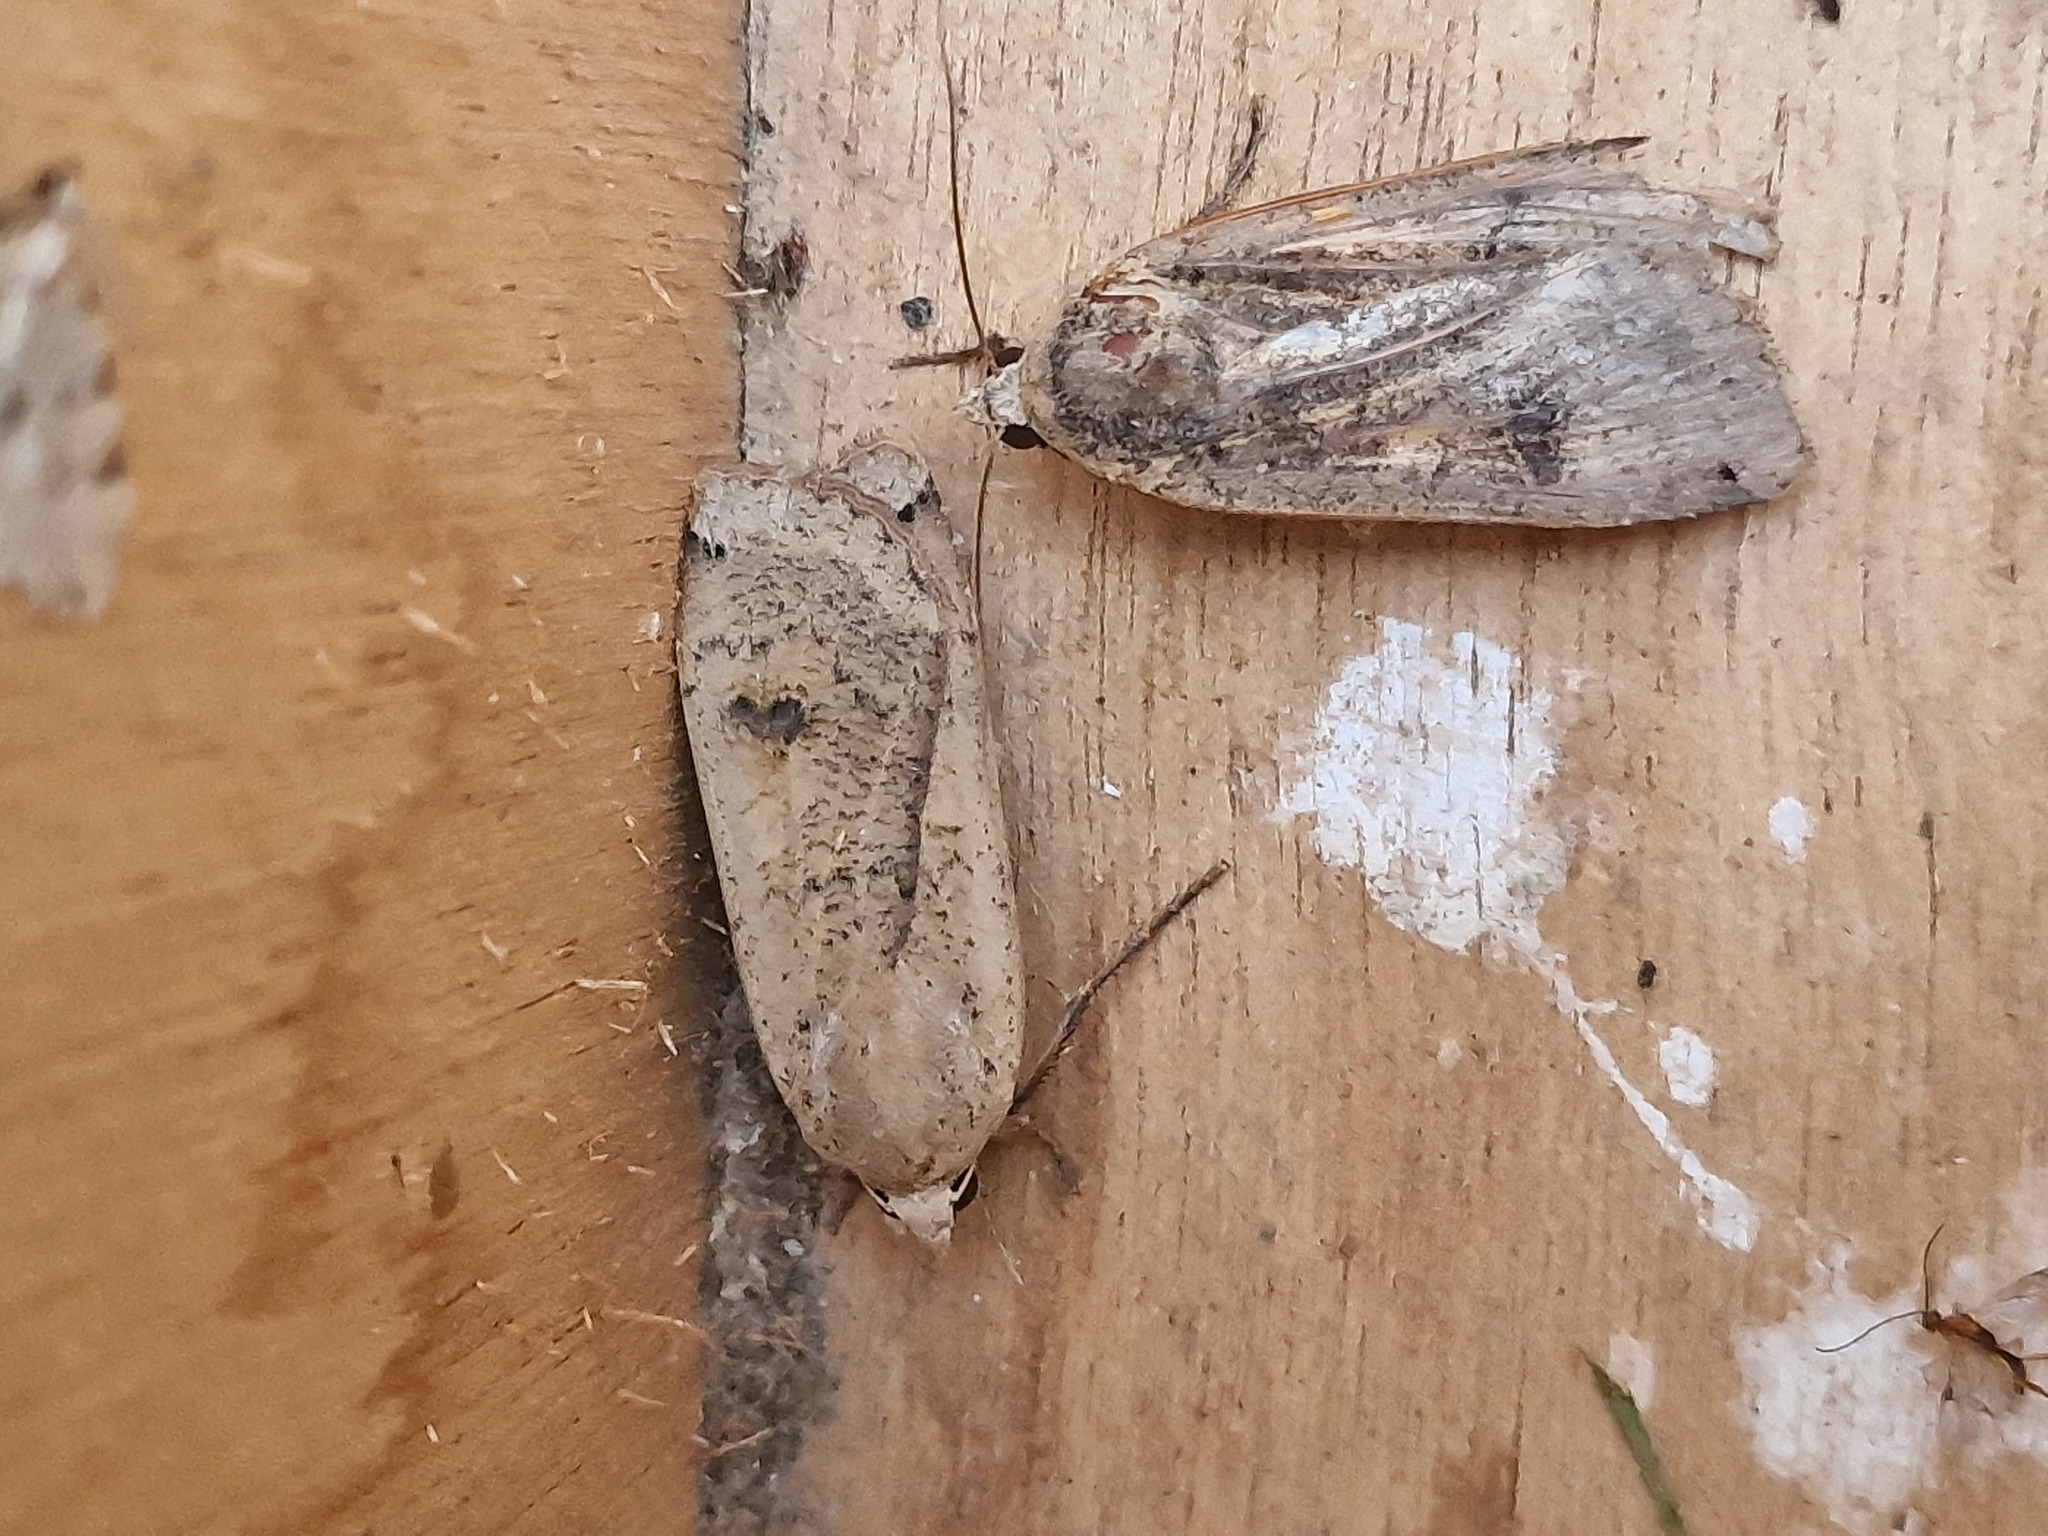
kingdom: Animalia
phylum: Arthropoda
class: Insecta
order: Lepidoptera
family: Noctuidae
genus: Noctua
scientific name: Noctua pronuba
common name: Large yellow underwing
